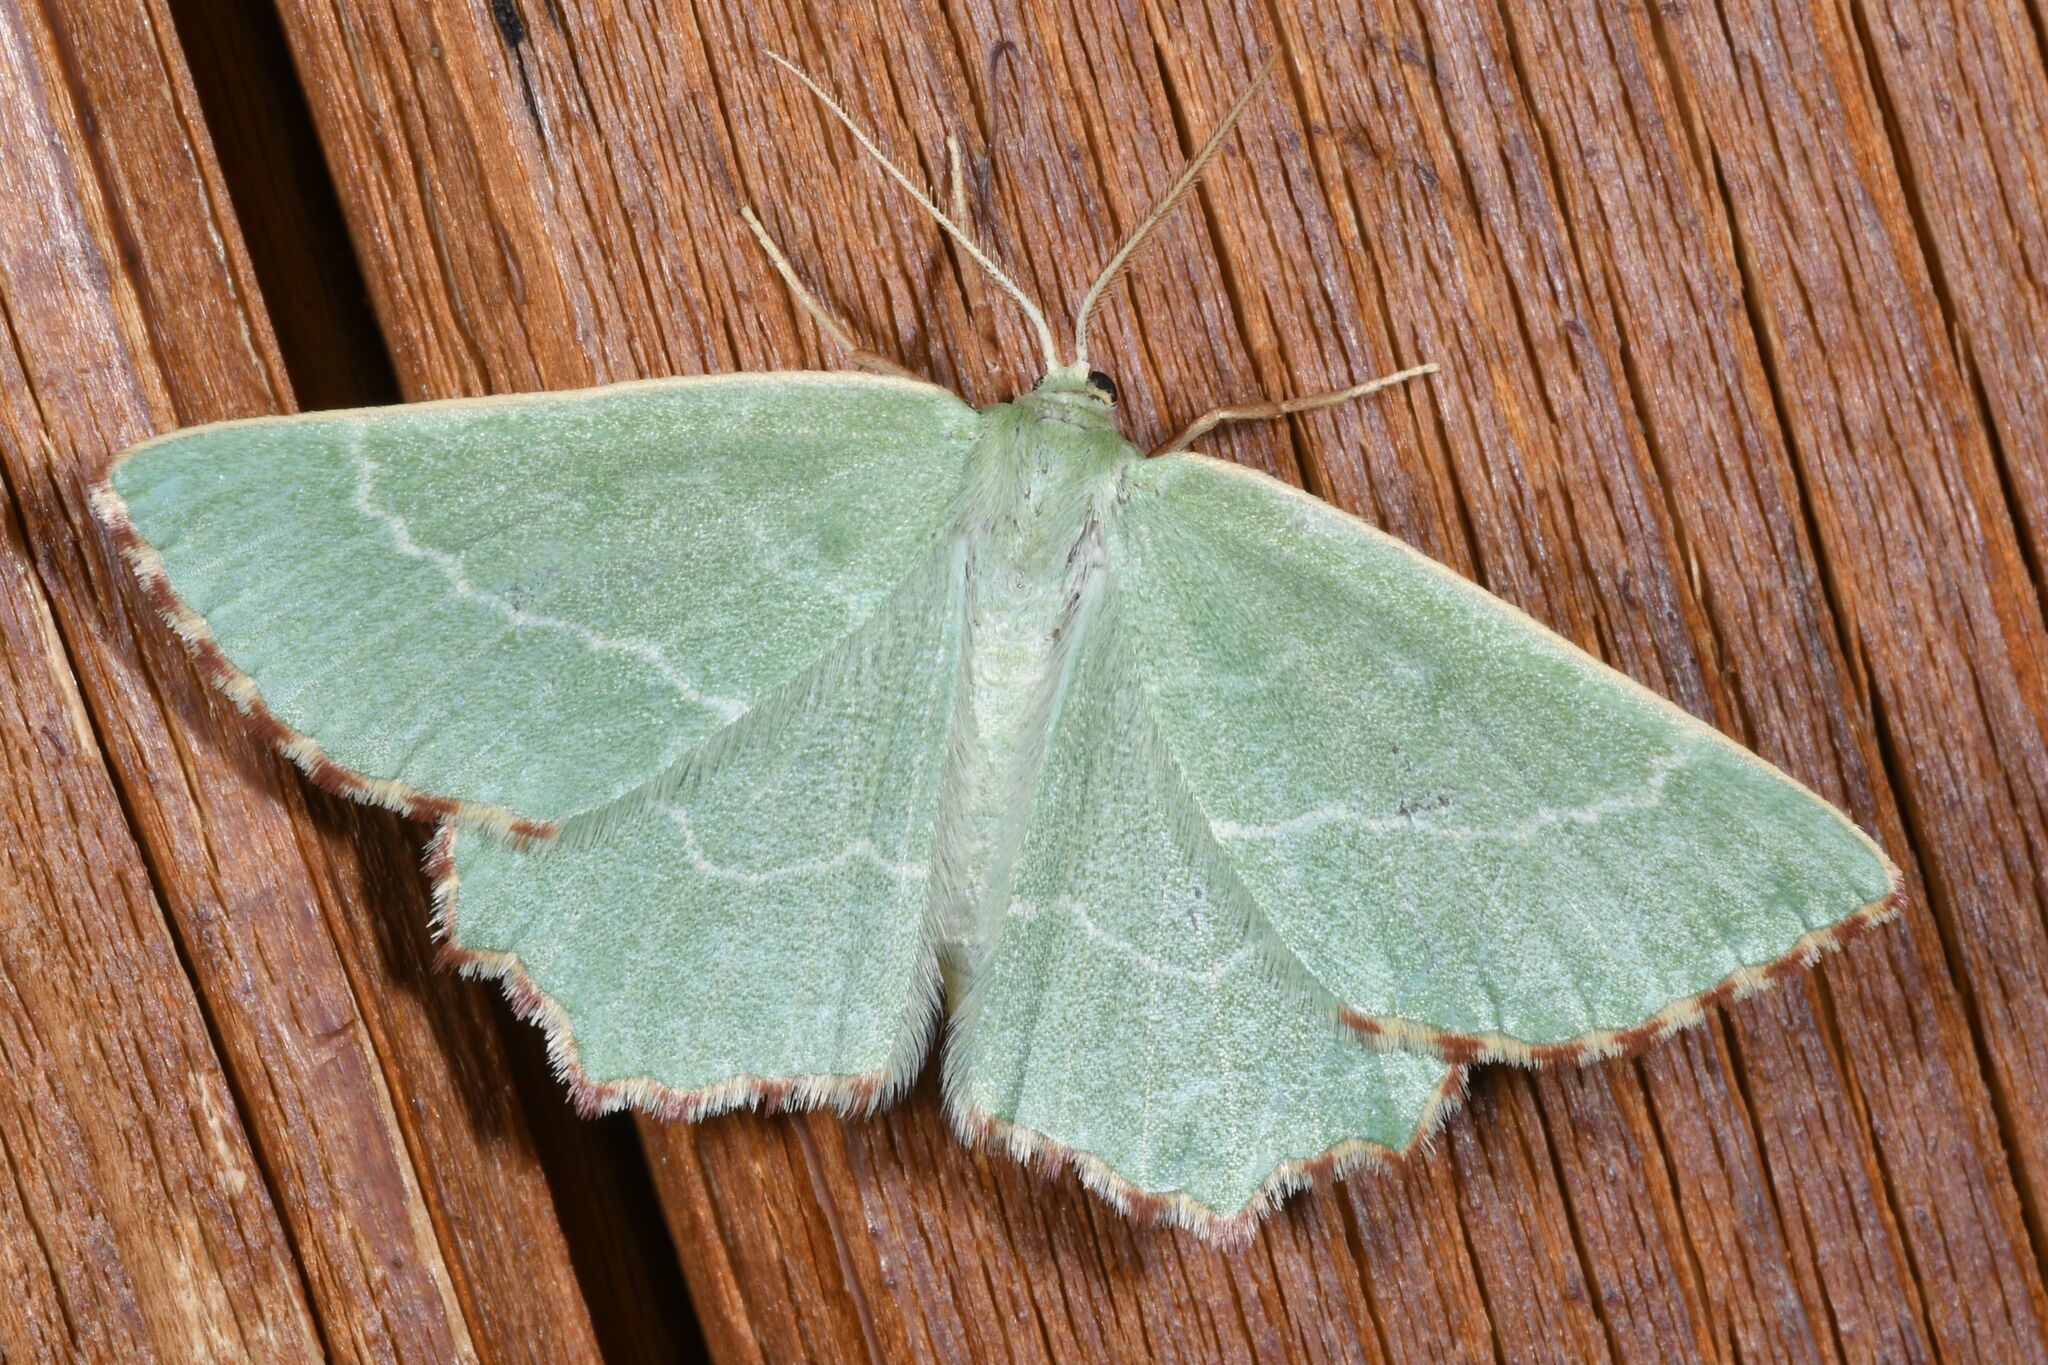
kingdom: Animalia
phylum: Arthropoda
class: Insecta
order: Lepidoptera
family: Geometridae
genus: Thalera
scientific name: Thalera fimbrialis
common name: Sussex emerald
